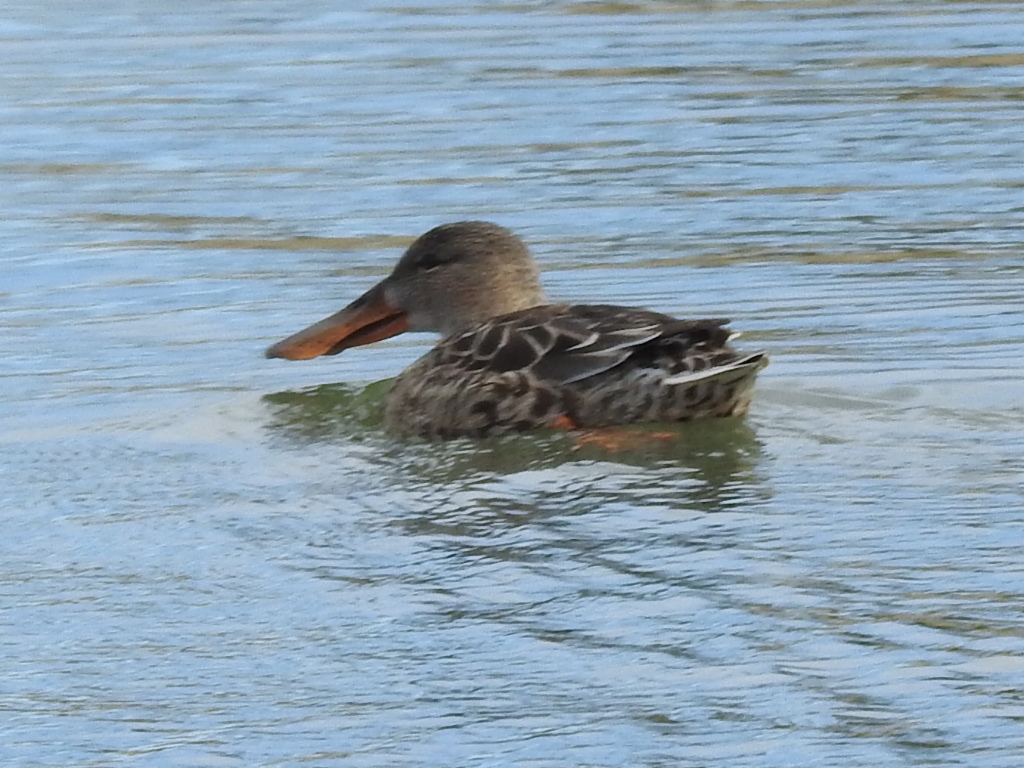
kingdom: Animalia
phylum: Chordata
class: Aves
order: Anseriformes
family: Anatidae
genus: Spatula
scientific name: Spatula clypeata
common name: Northern shoveler
